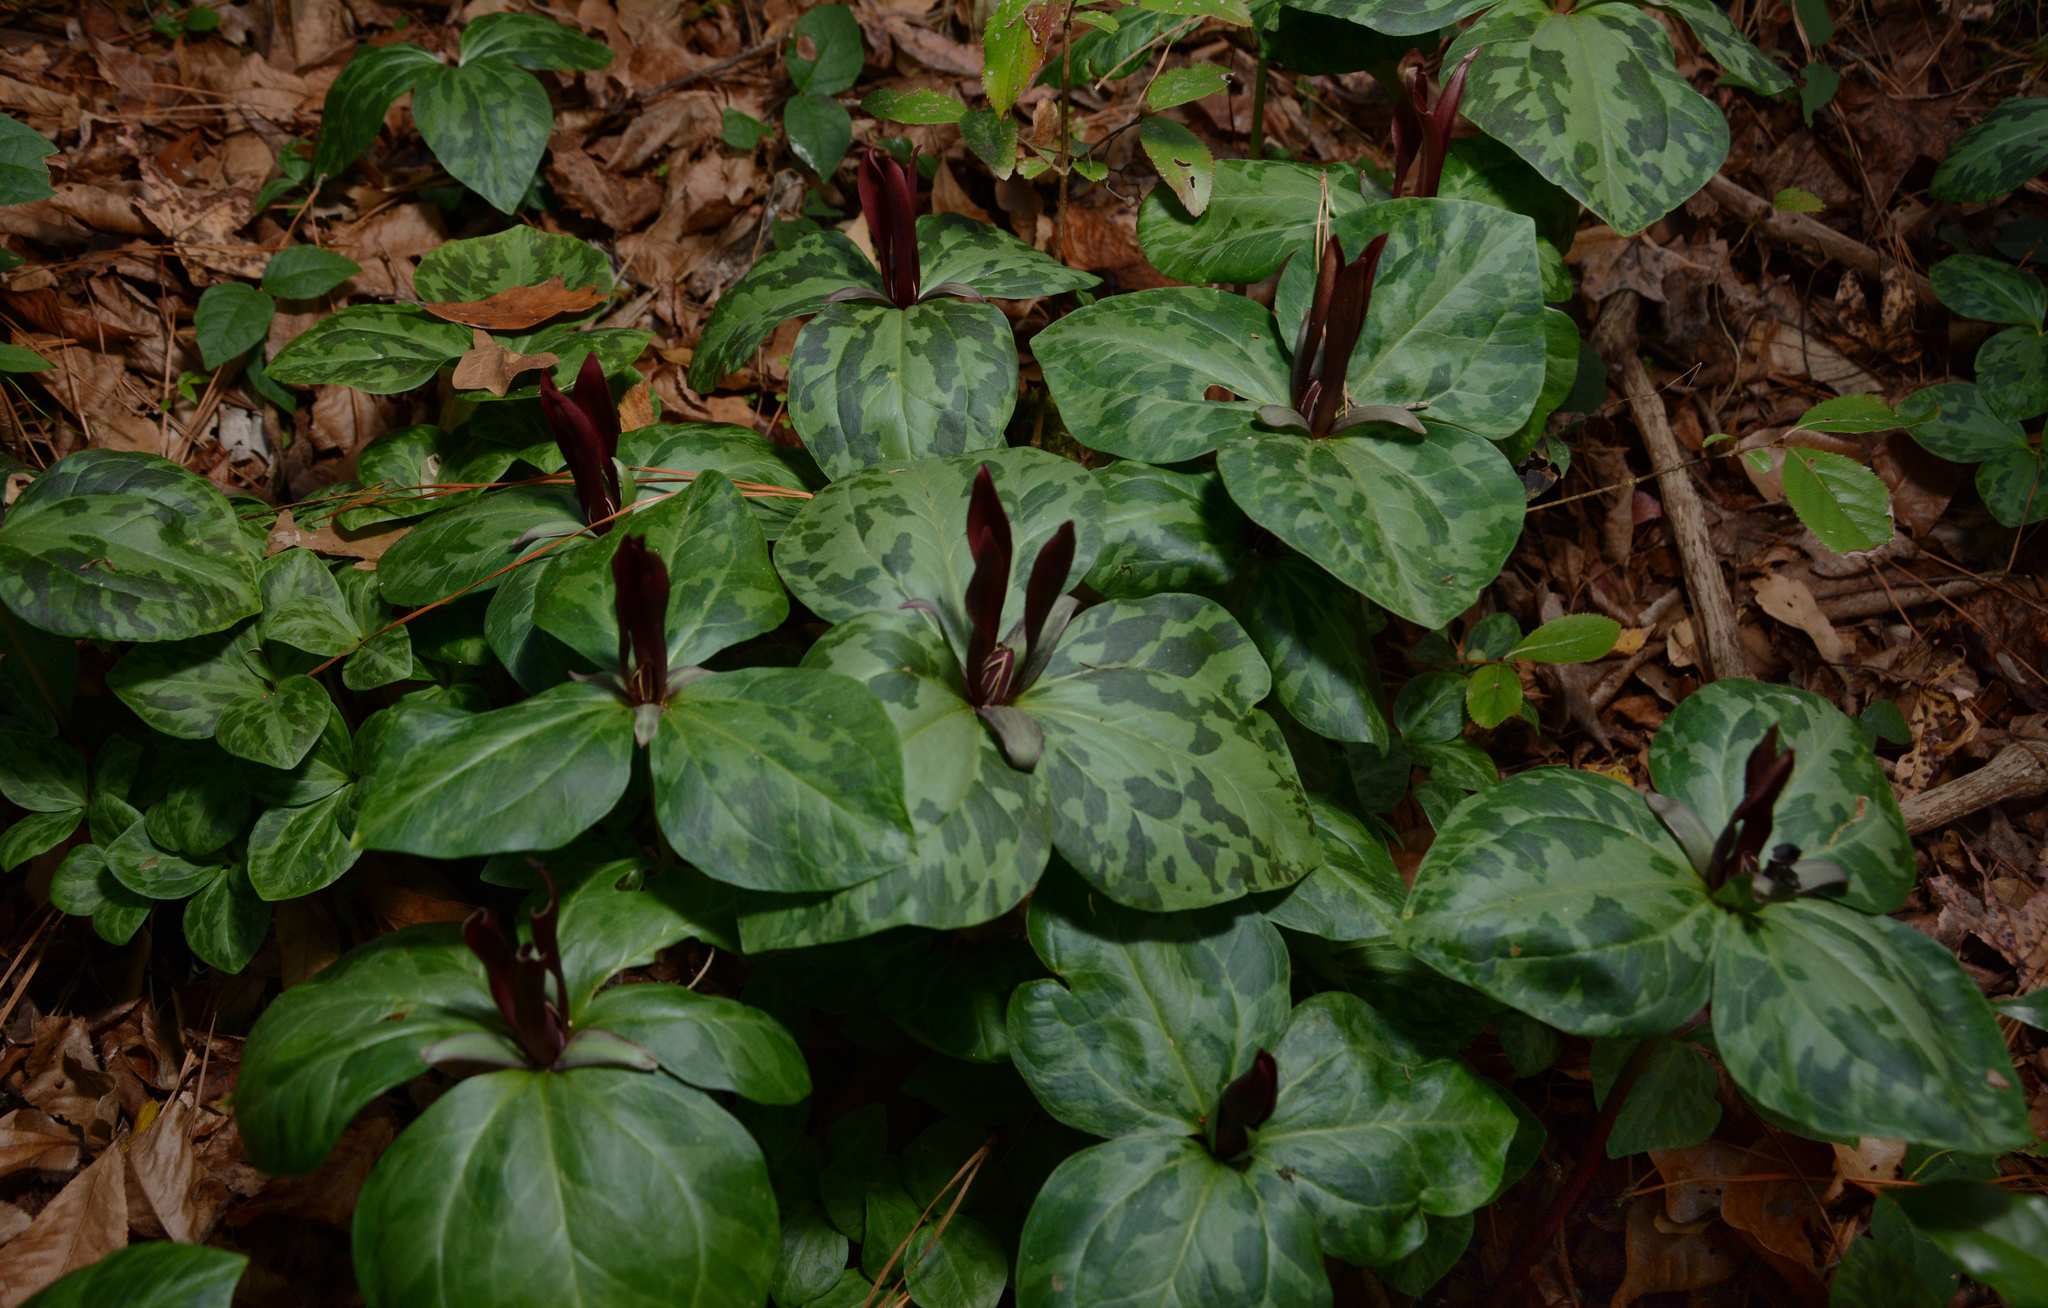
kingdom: Plantae
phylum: Tracheophyta
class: Liliopsida
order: Liliales
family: Melanthiaceae
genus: Trillium
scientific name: Trillium maculatum
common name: Mottled trillium
